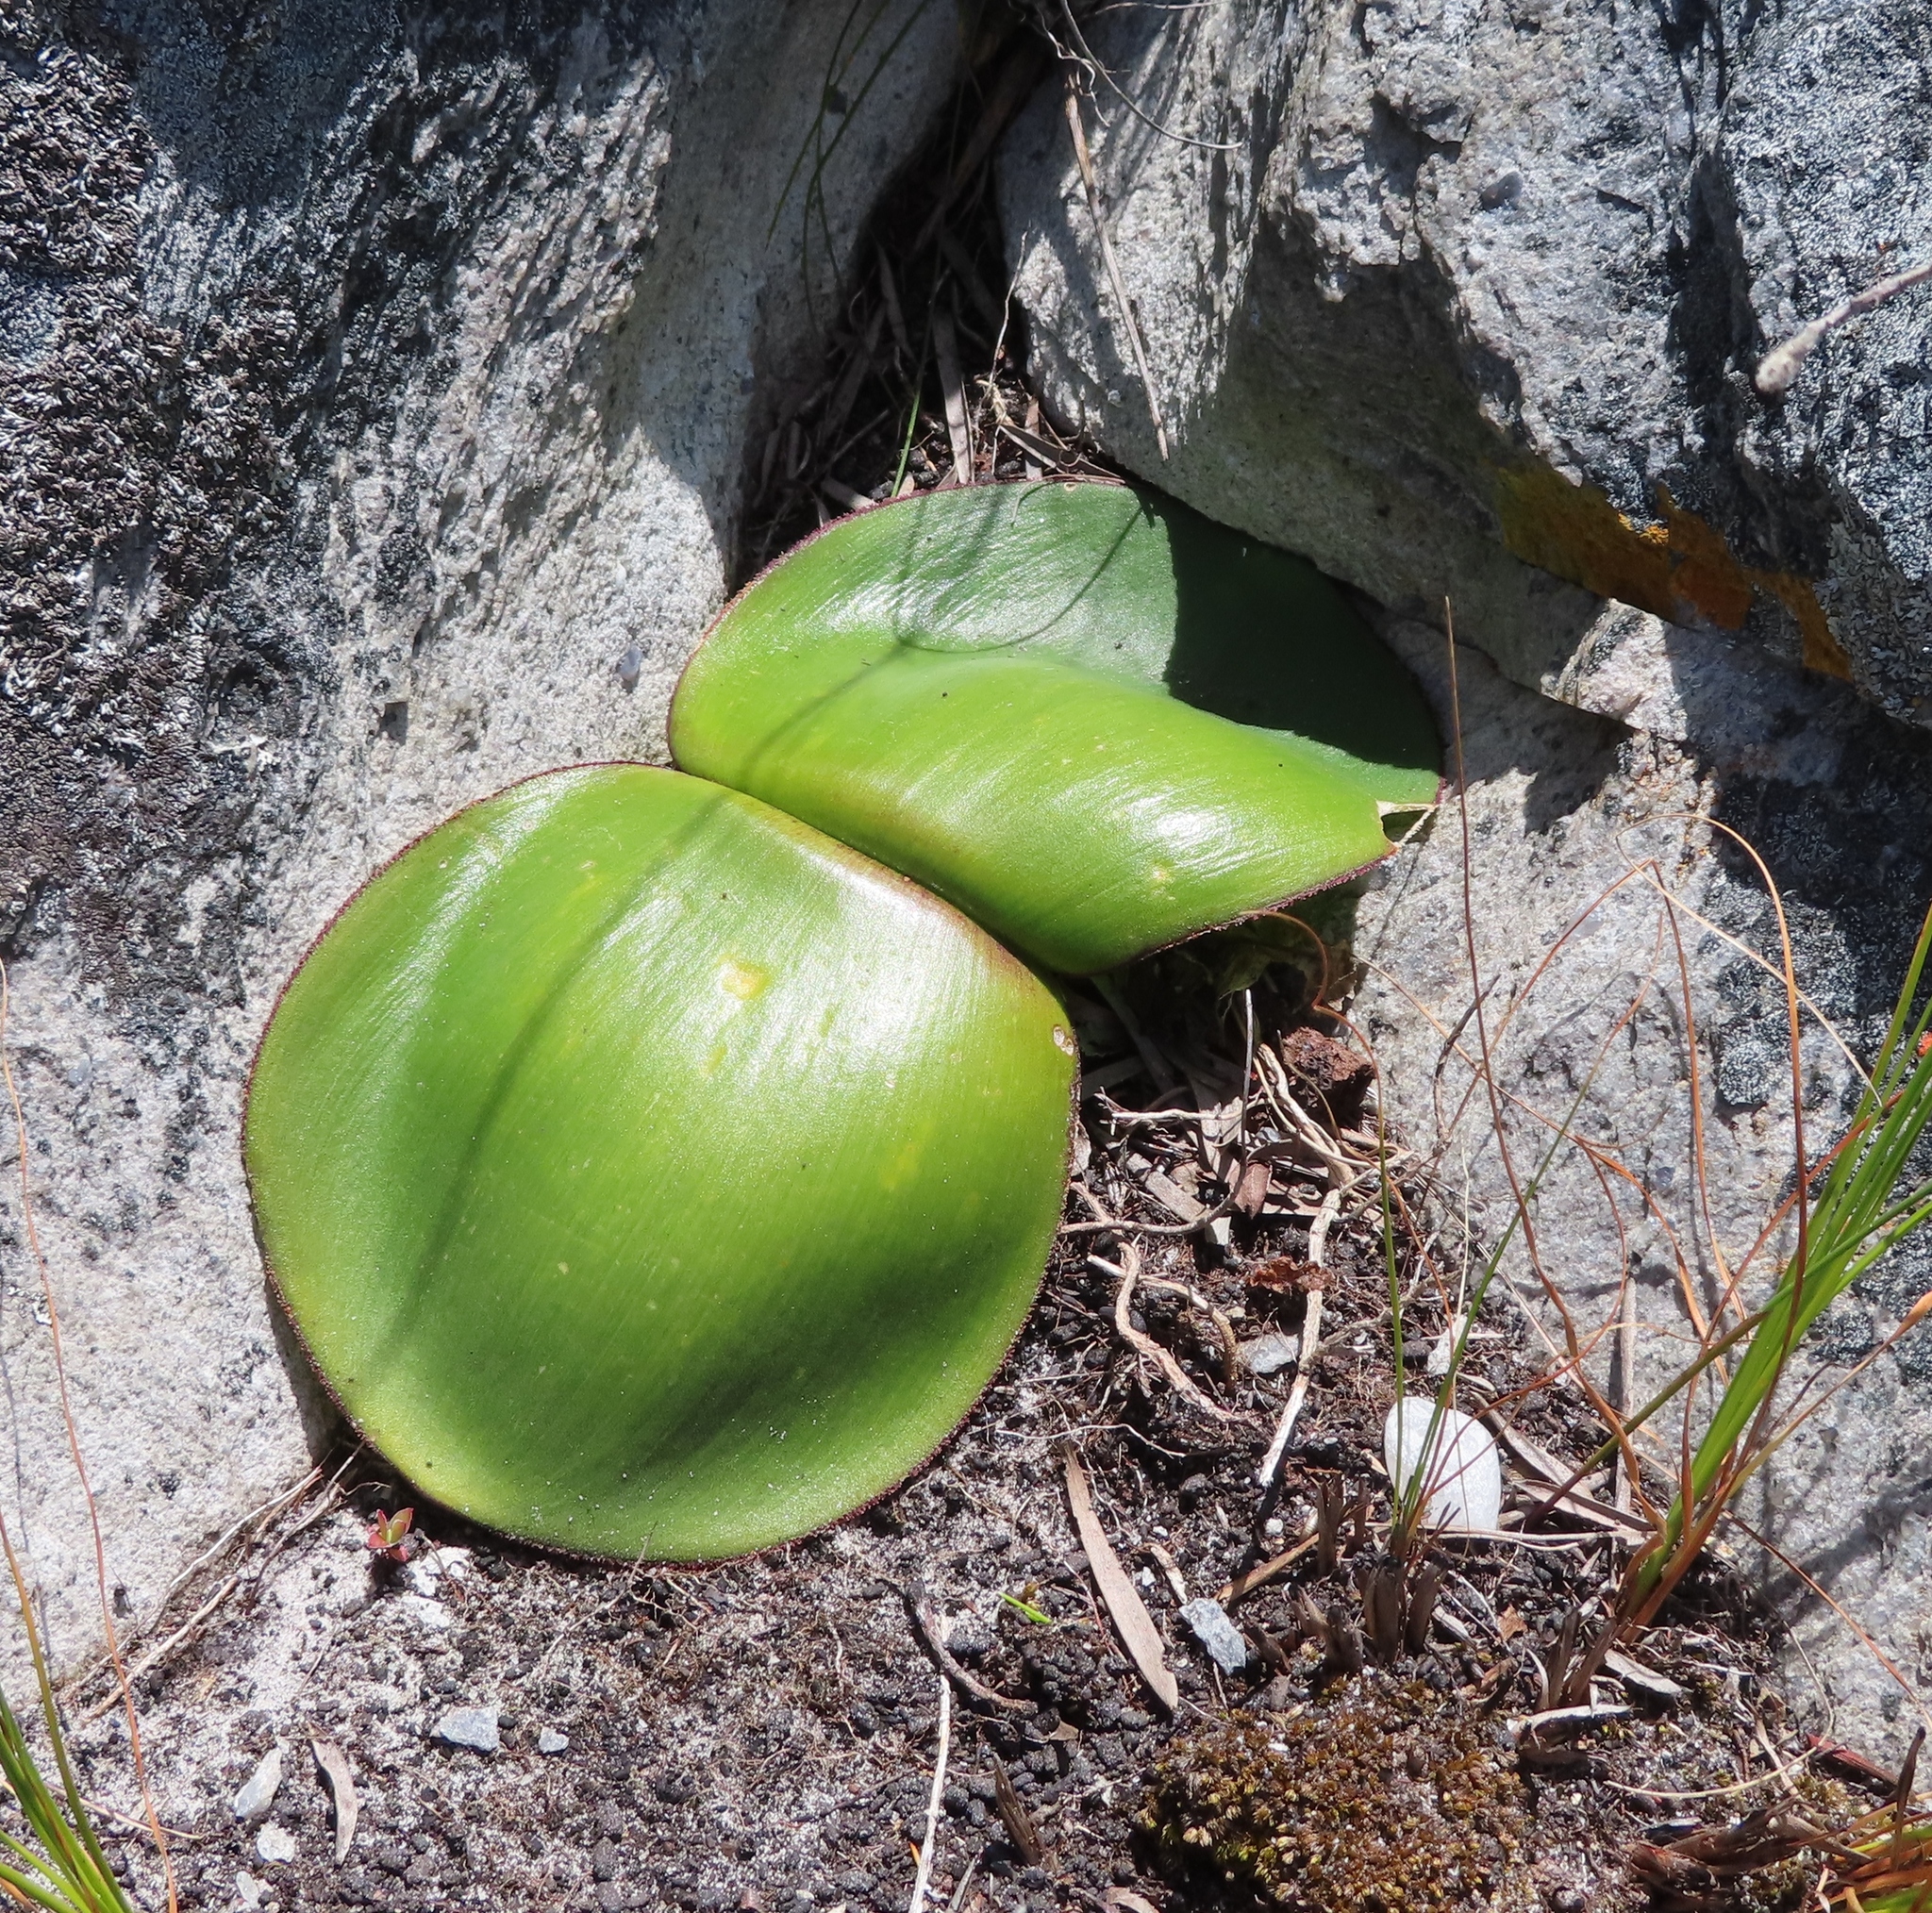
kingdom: Plantae
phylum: Tracheophyta
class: Liliopsida
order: Asparagales
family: Amaryllidaceae
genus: Haemanthus
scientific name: Haemanthus sanguineus
